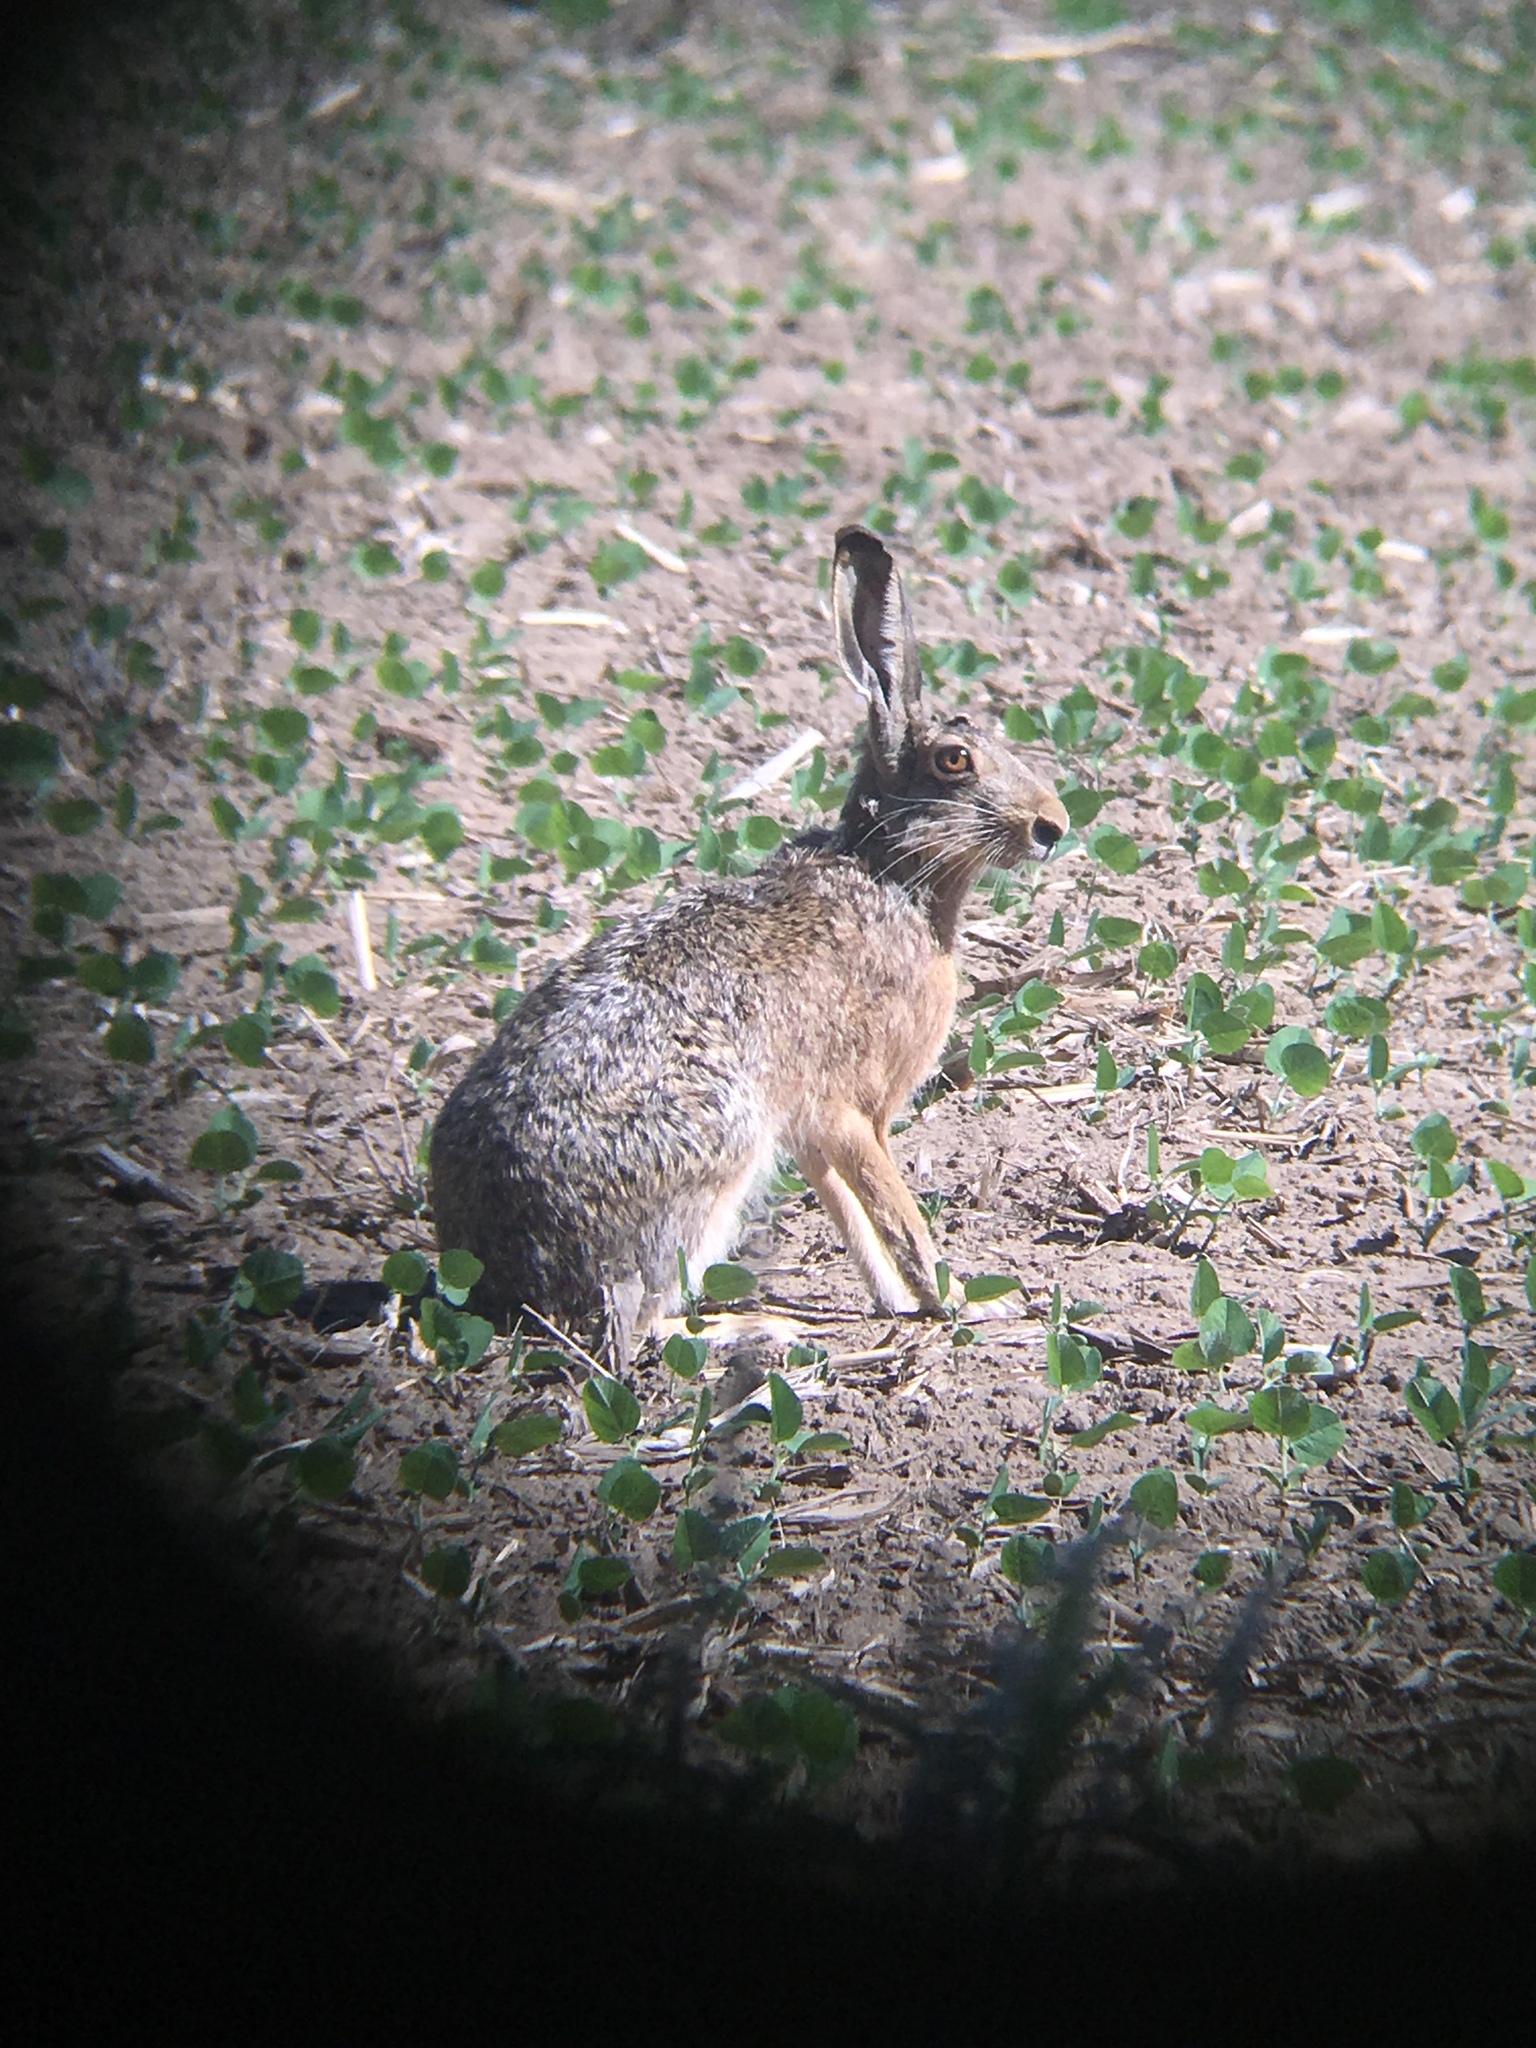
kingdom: Animalia
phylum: Chordata
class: Mammalia
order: Lagomorpha
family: Leporidae
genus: Lepus
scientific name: Lepus europaeus
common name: European hare
